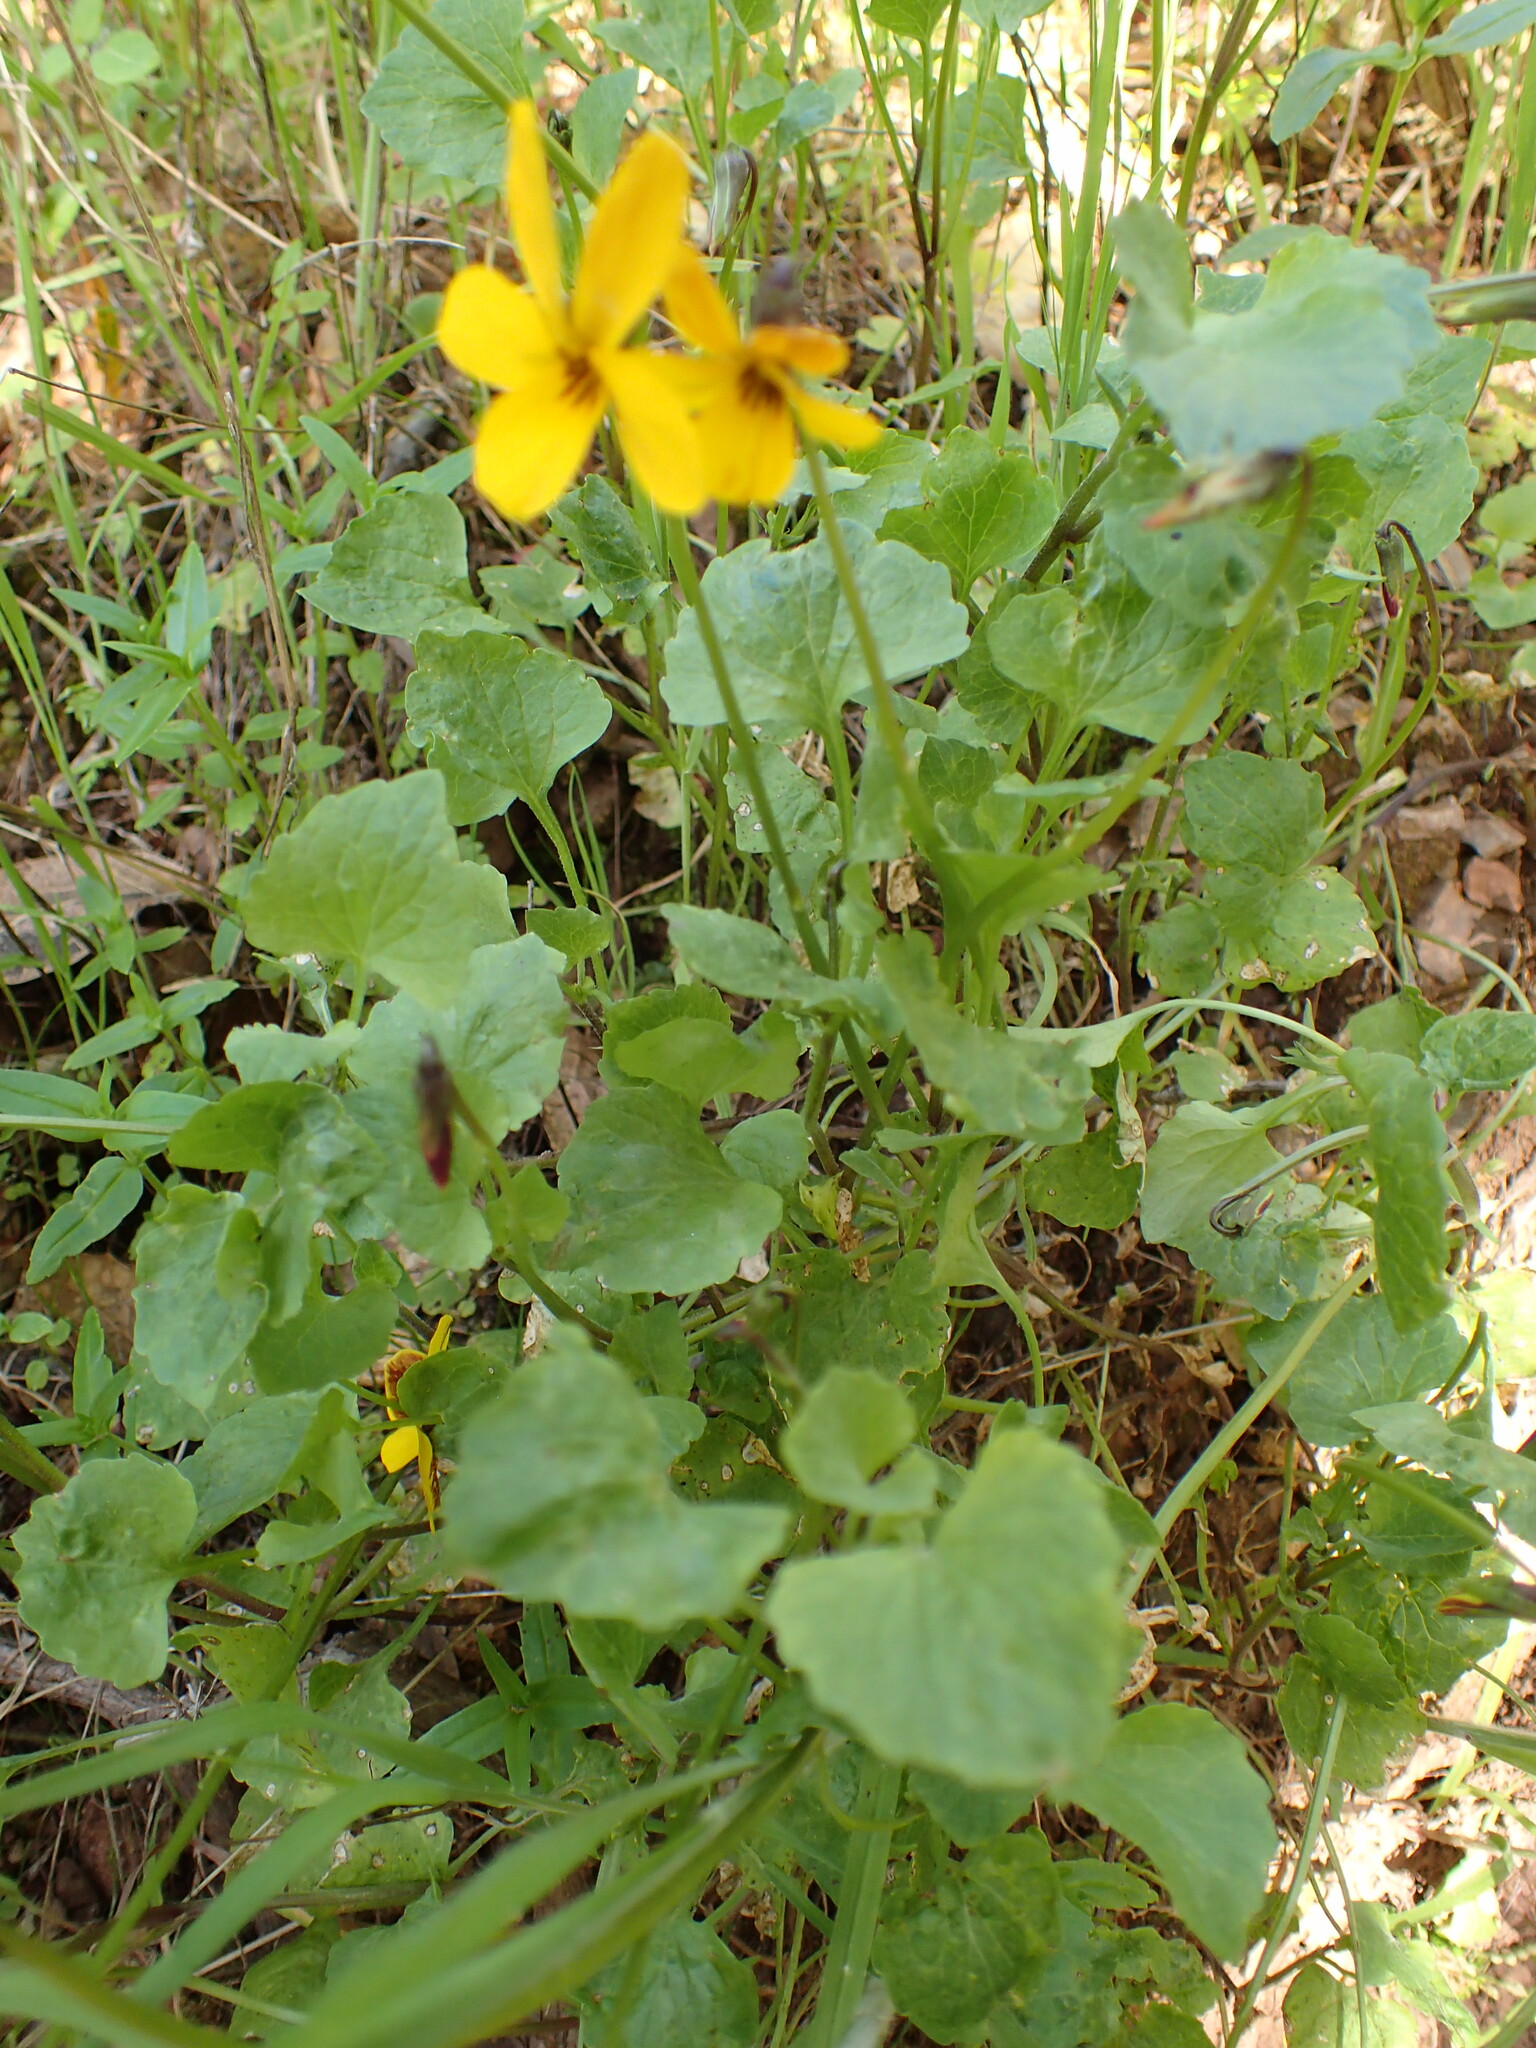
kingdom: Plantae
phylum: Tracheophyta
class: Magnoliopsida
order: Malpighiales
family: Violaceae
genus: Viola
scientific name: Viola pedunculata
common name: California golden violet
